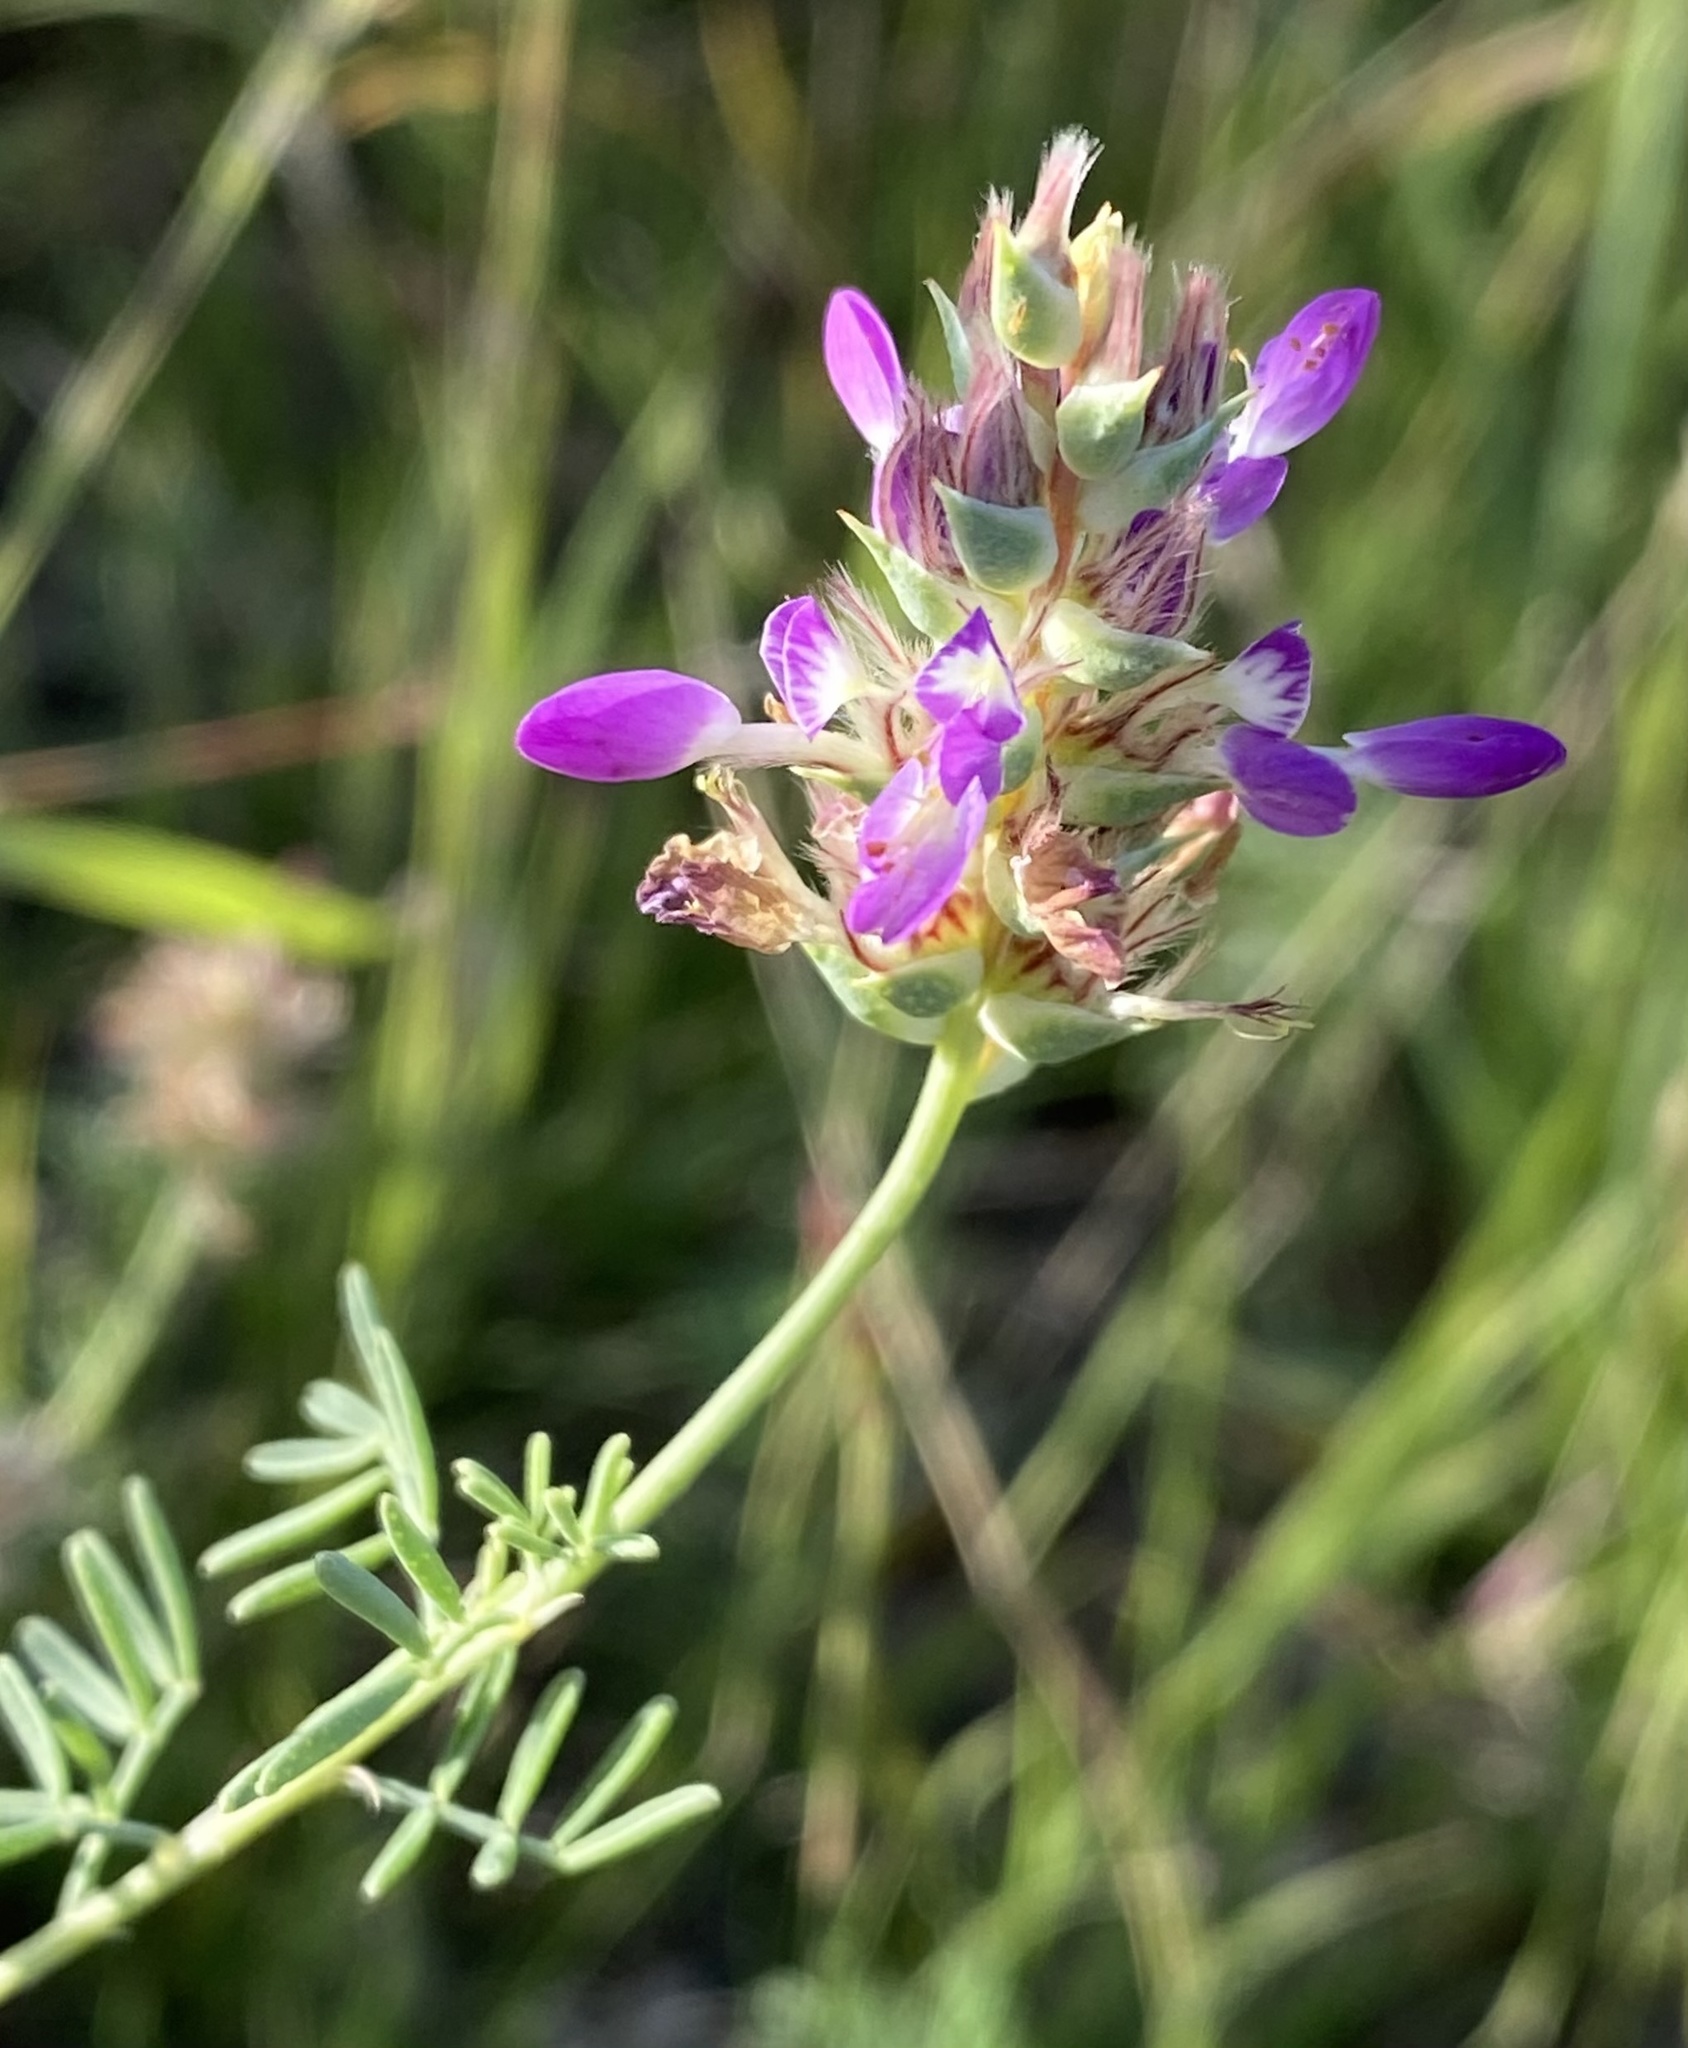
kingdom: Plantae
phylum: Tracheophyta
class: Magnoliopsida
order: Fabales
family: Fabaceae
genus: Dalea
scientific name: Dalea pogonathera
